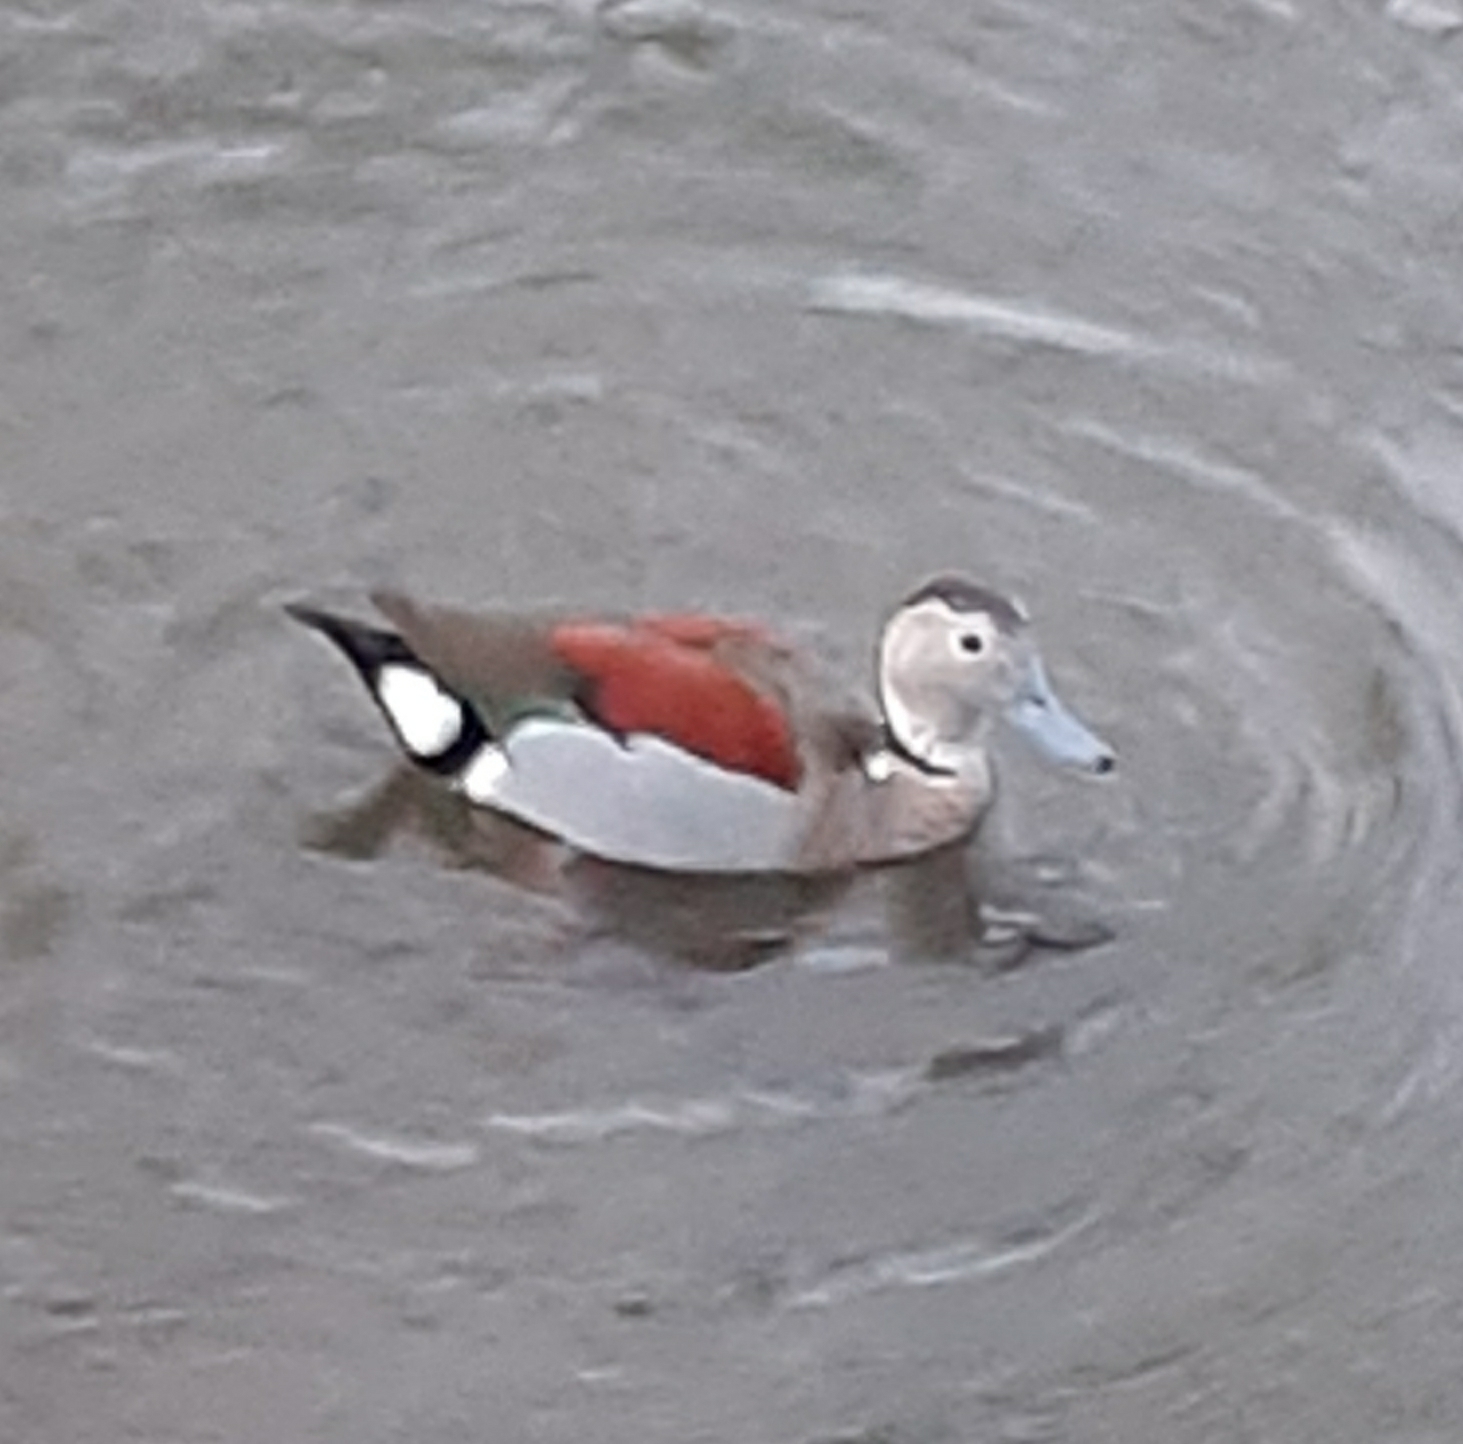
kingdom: Animalia
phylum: Chordata
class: Aves
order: Anseriformes
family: Anatidae
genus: Callonetta
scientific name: Callonetta leucophrys
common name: Ringed teal
